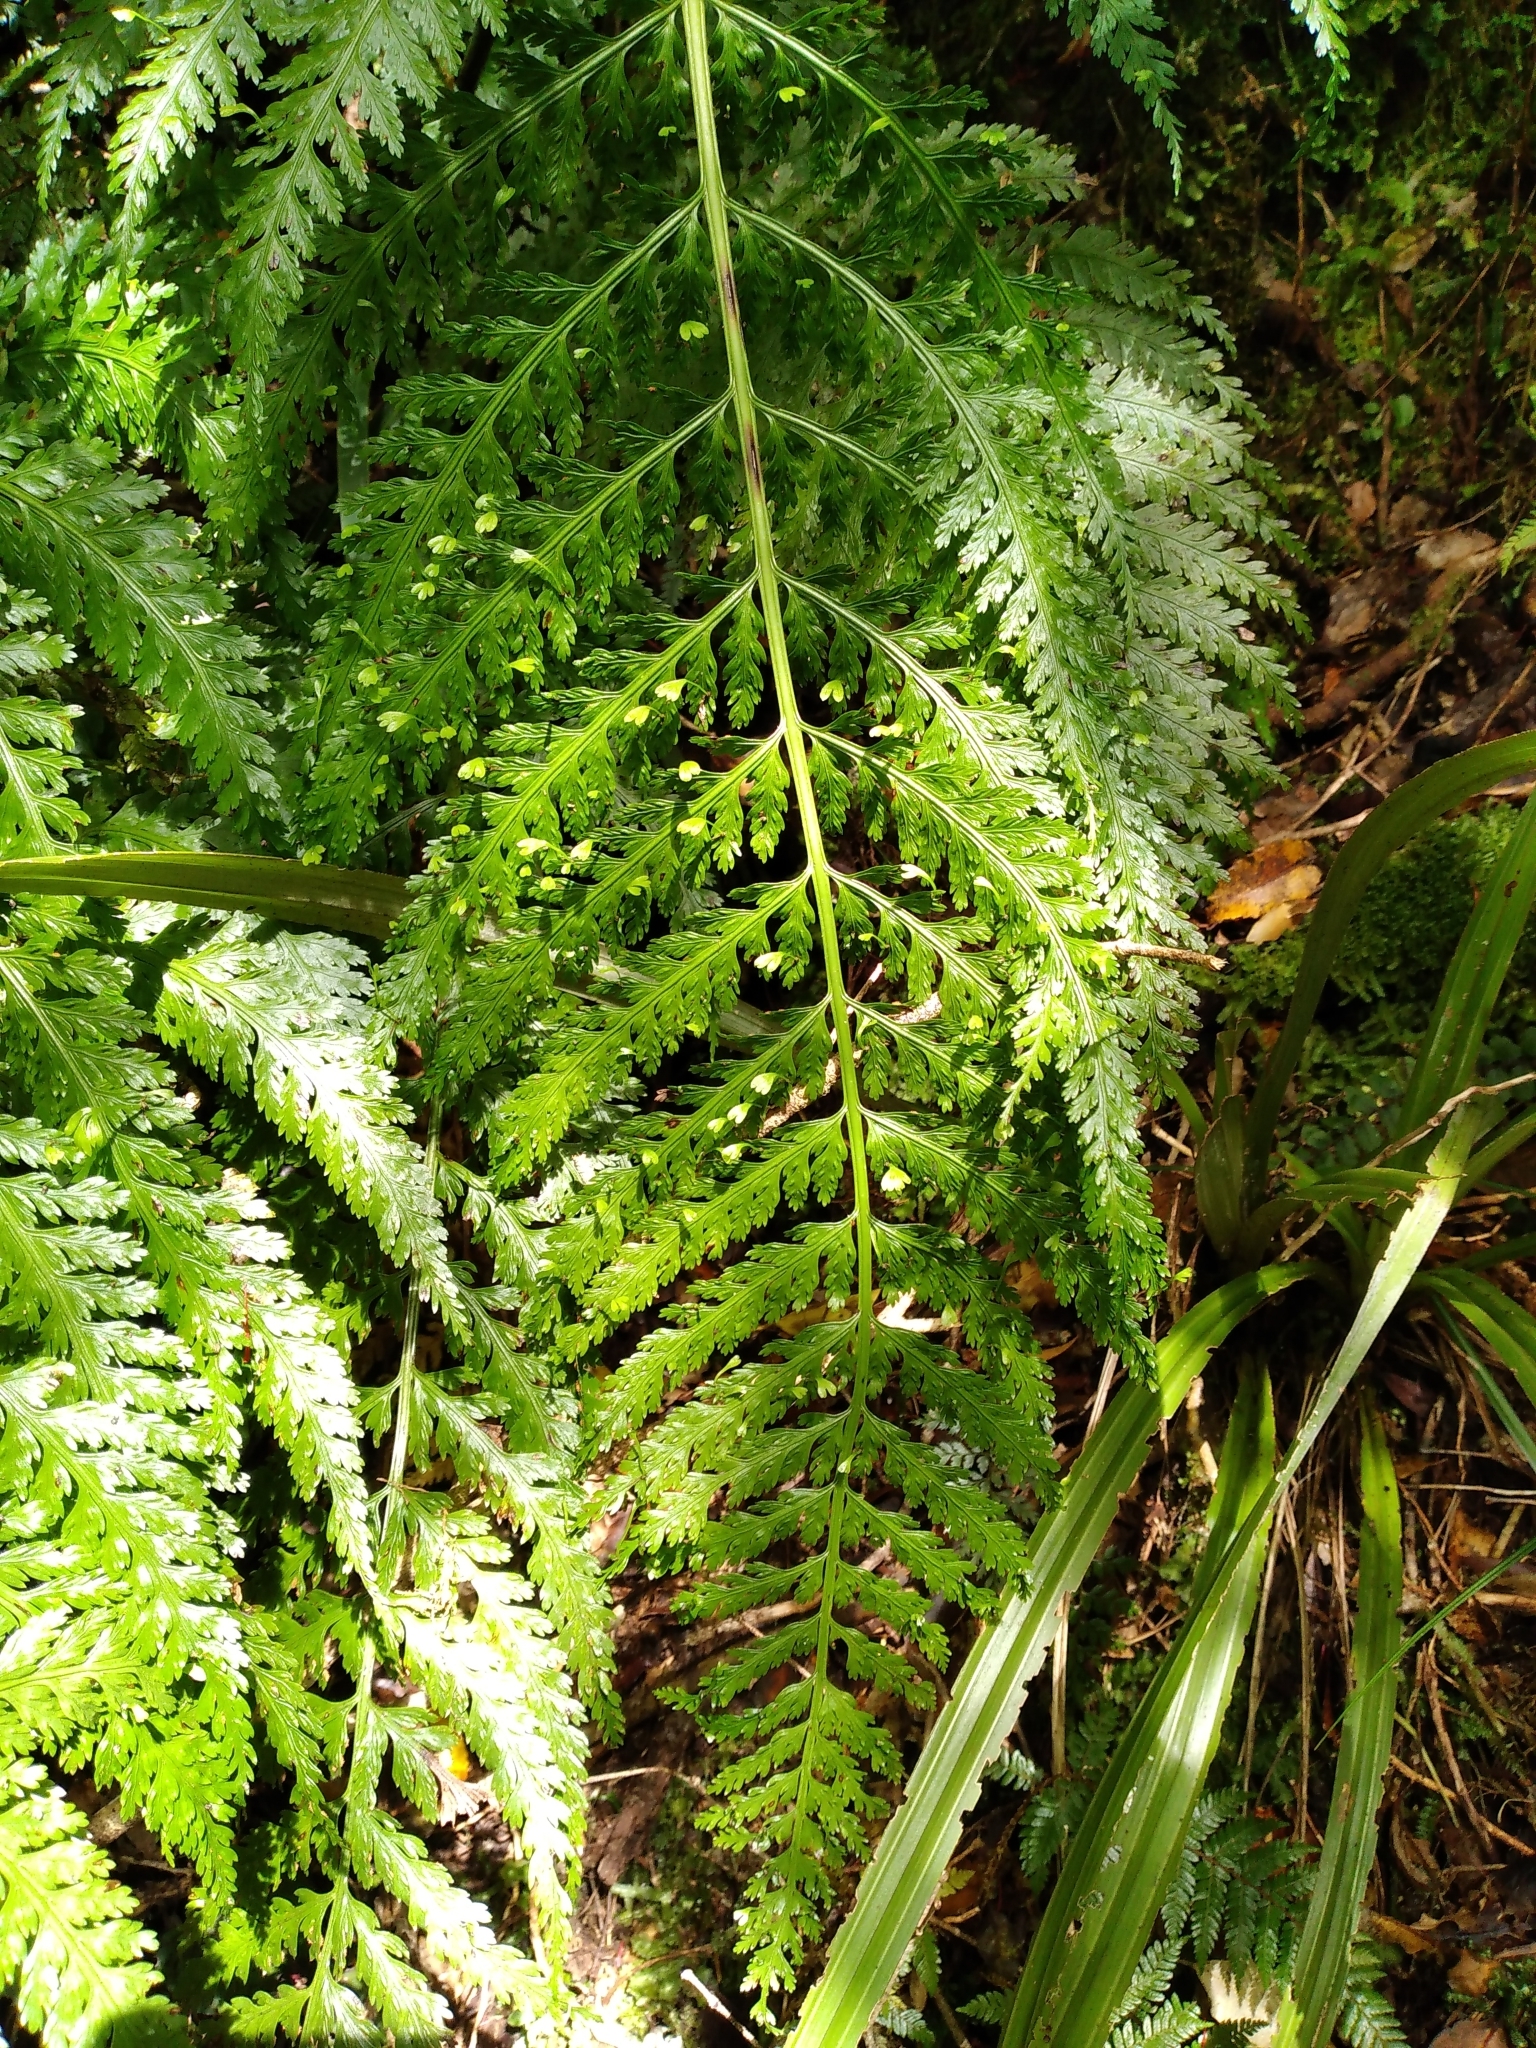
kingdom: Plantae
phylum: Tracheophyta
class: Polypodiopsida
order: Polypodiales
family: Aspleniaceae
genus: Asplenium
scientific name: Asplenium bulbiferum
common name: Mother fern
